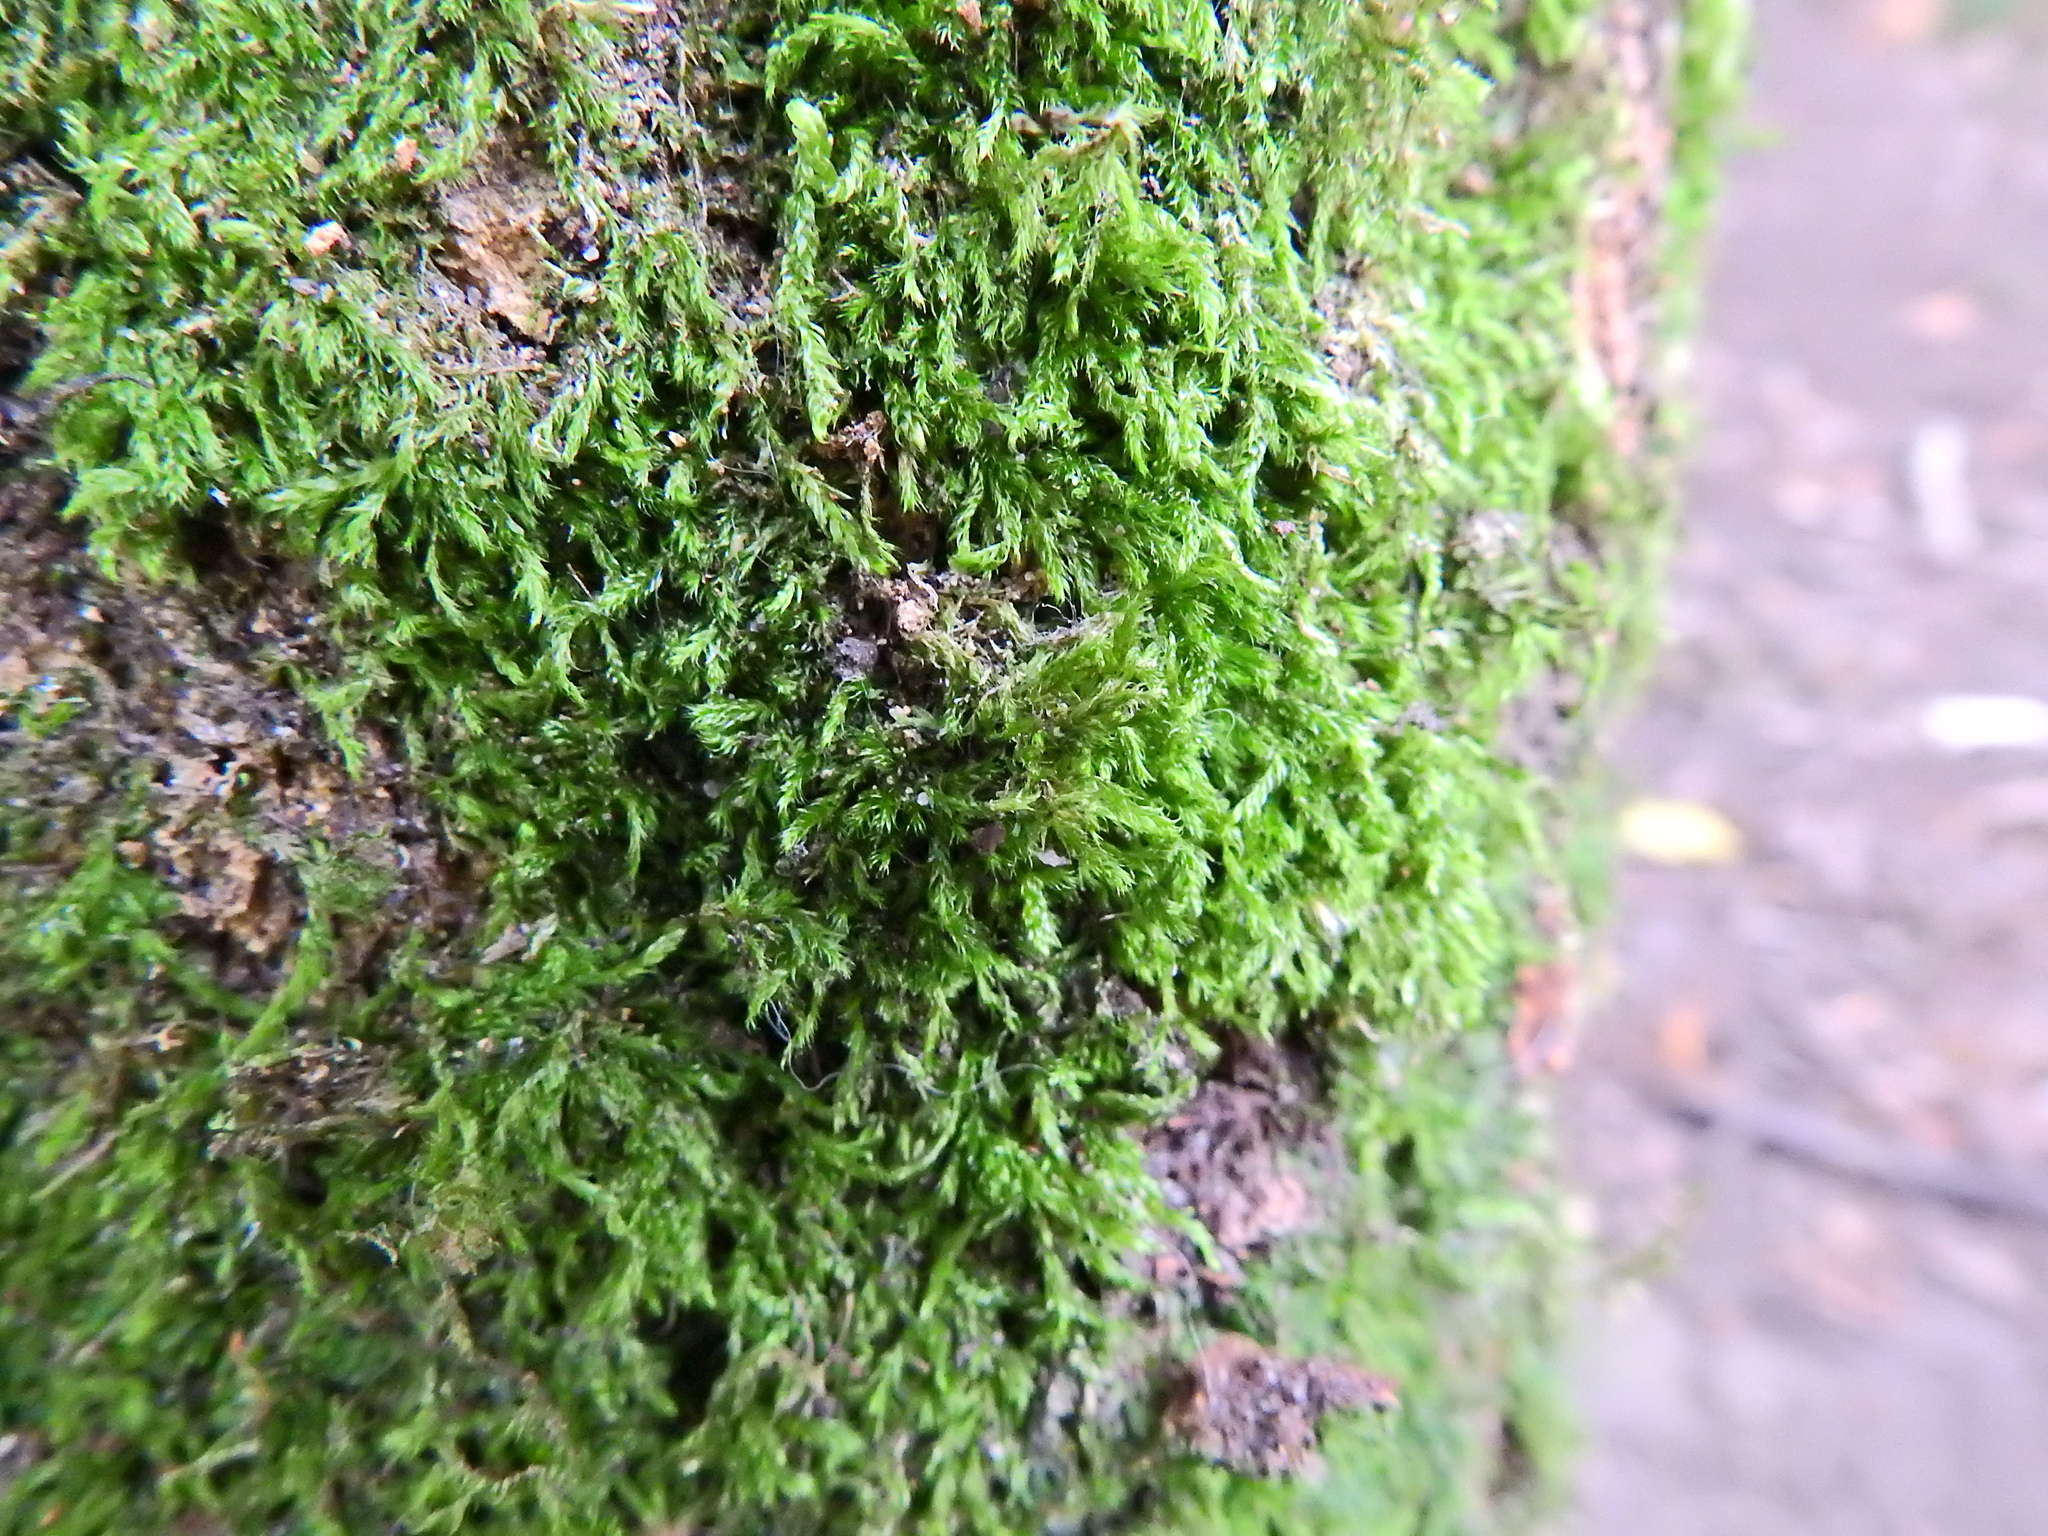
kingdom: Plantae
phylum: Bryophyta
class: Bryopsida
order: Hypnales
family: Hypnaceae
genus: Hypnum
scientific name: Hypnum cupressiforme
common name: Cypress-leaved plait-moss
